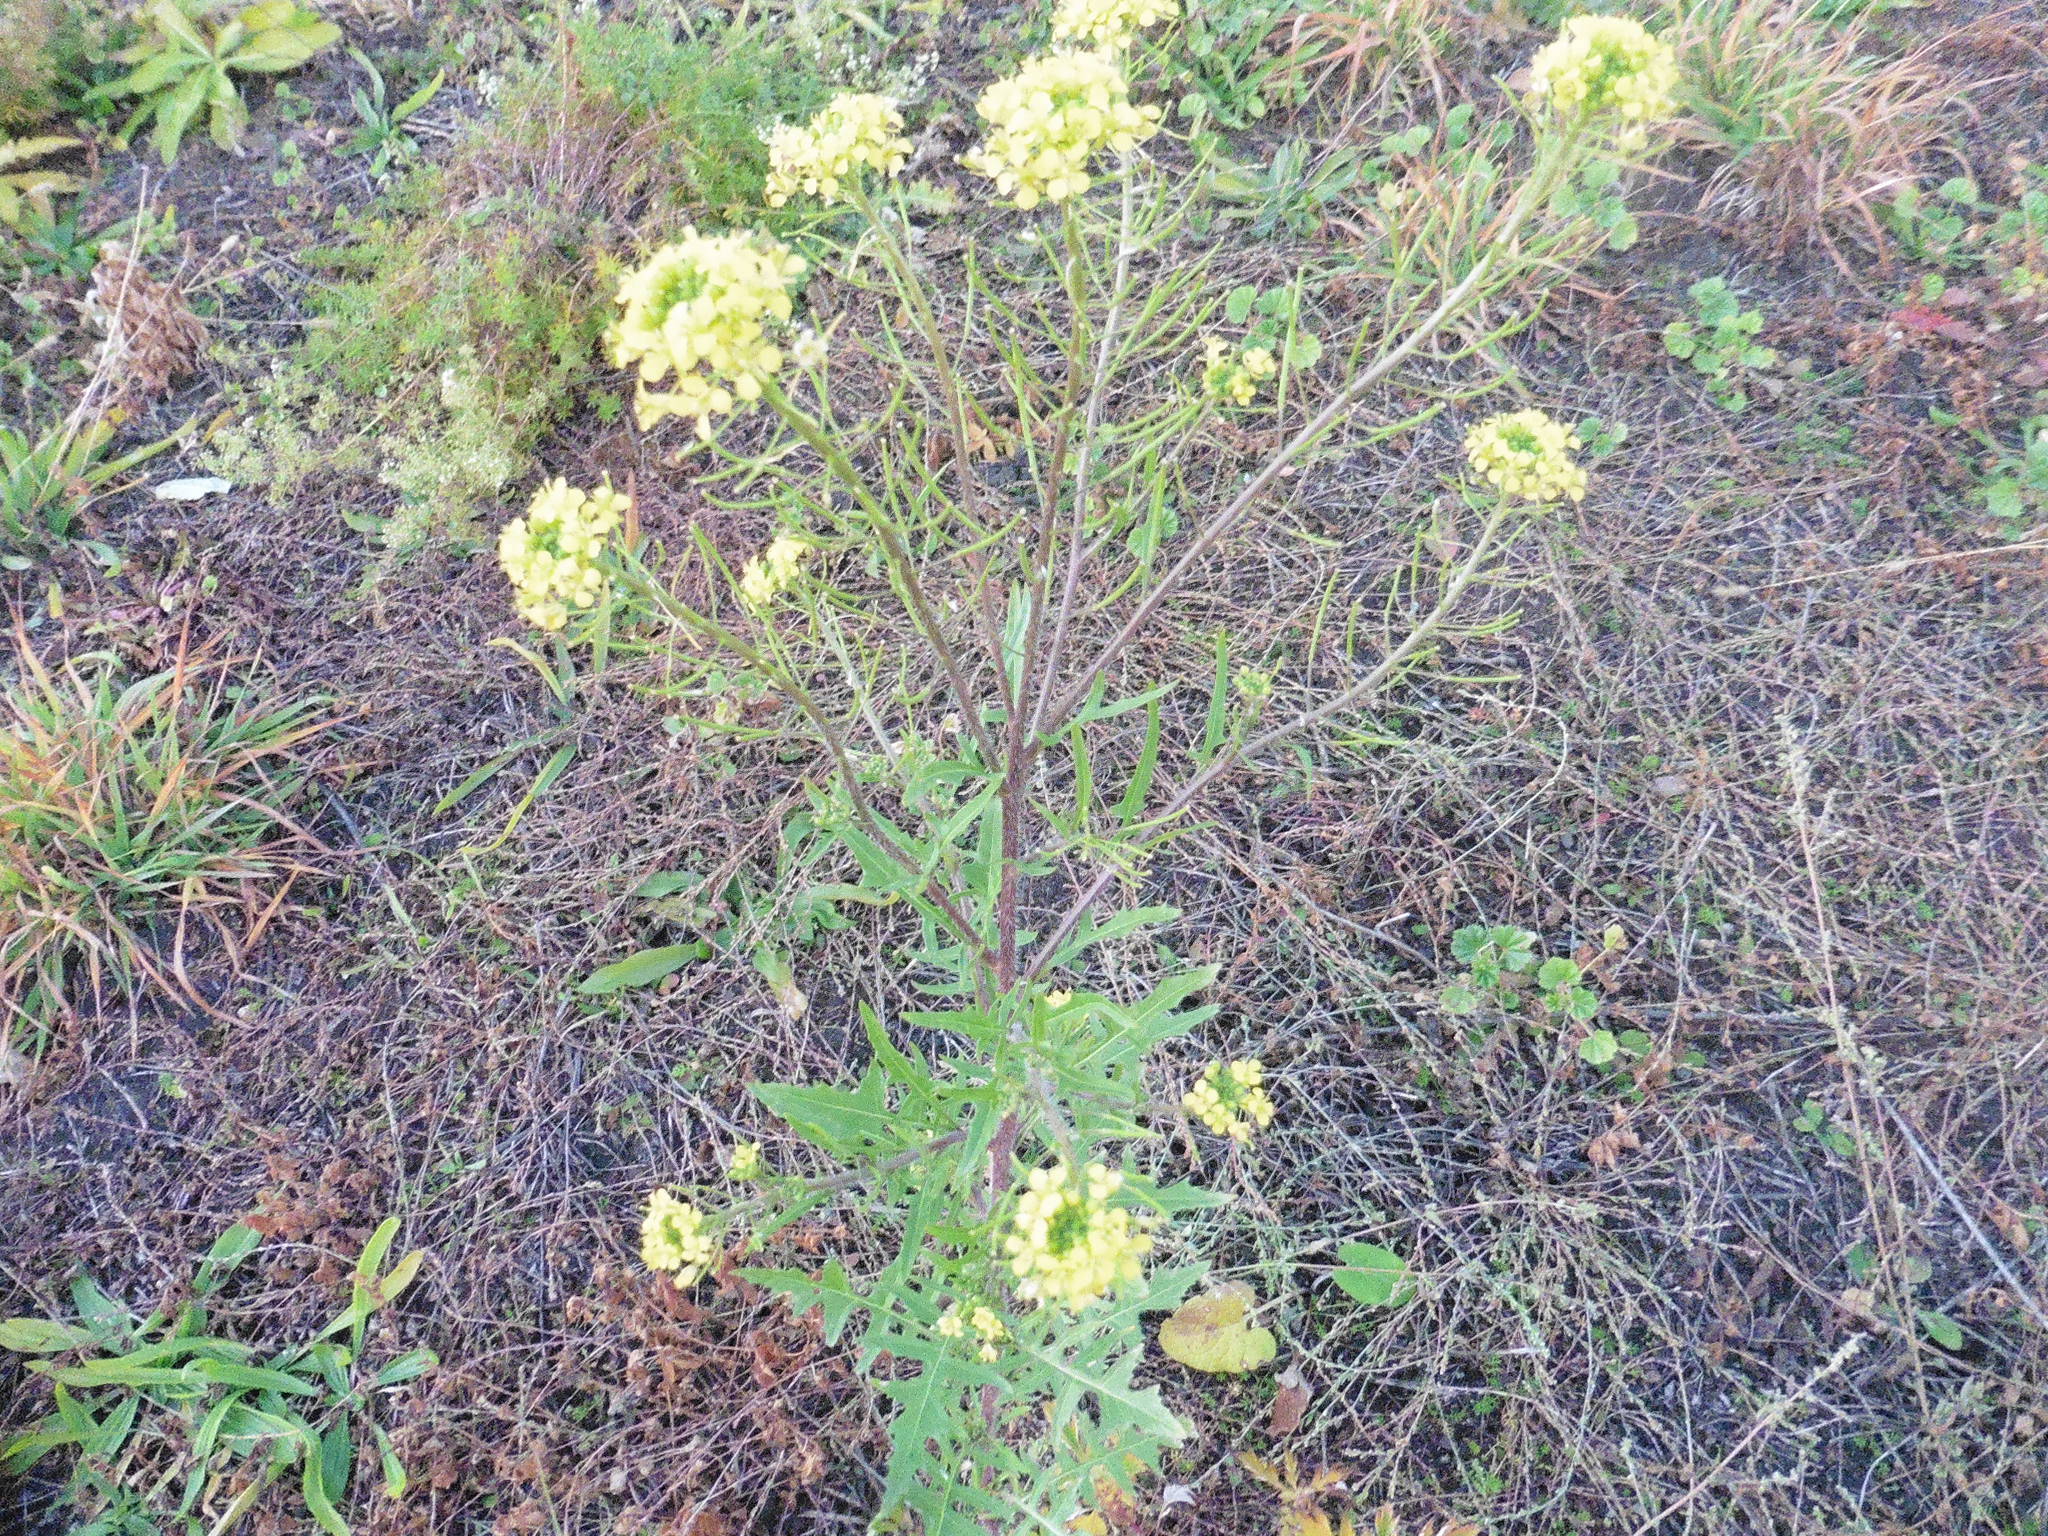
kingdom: Plantae
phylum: Tracheophyta
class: Magnoliopsida
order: Brassicales
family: Brassicaceae
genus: Sisymbrium
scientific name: Sisymbrium loeselii
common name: False london-rocket
